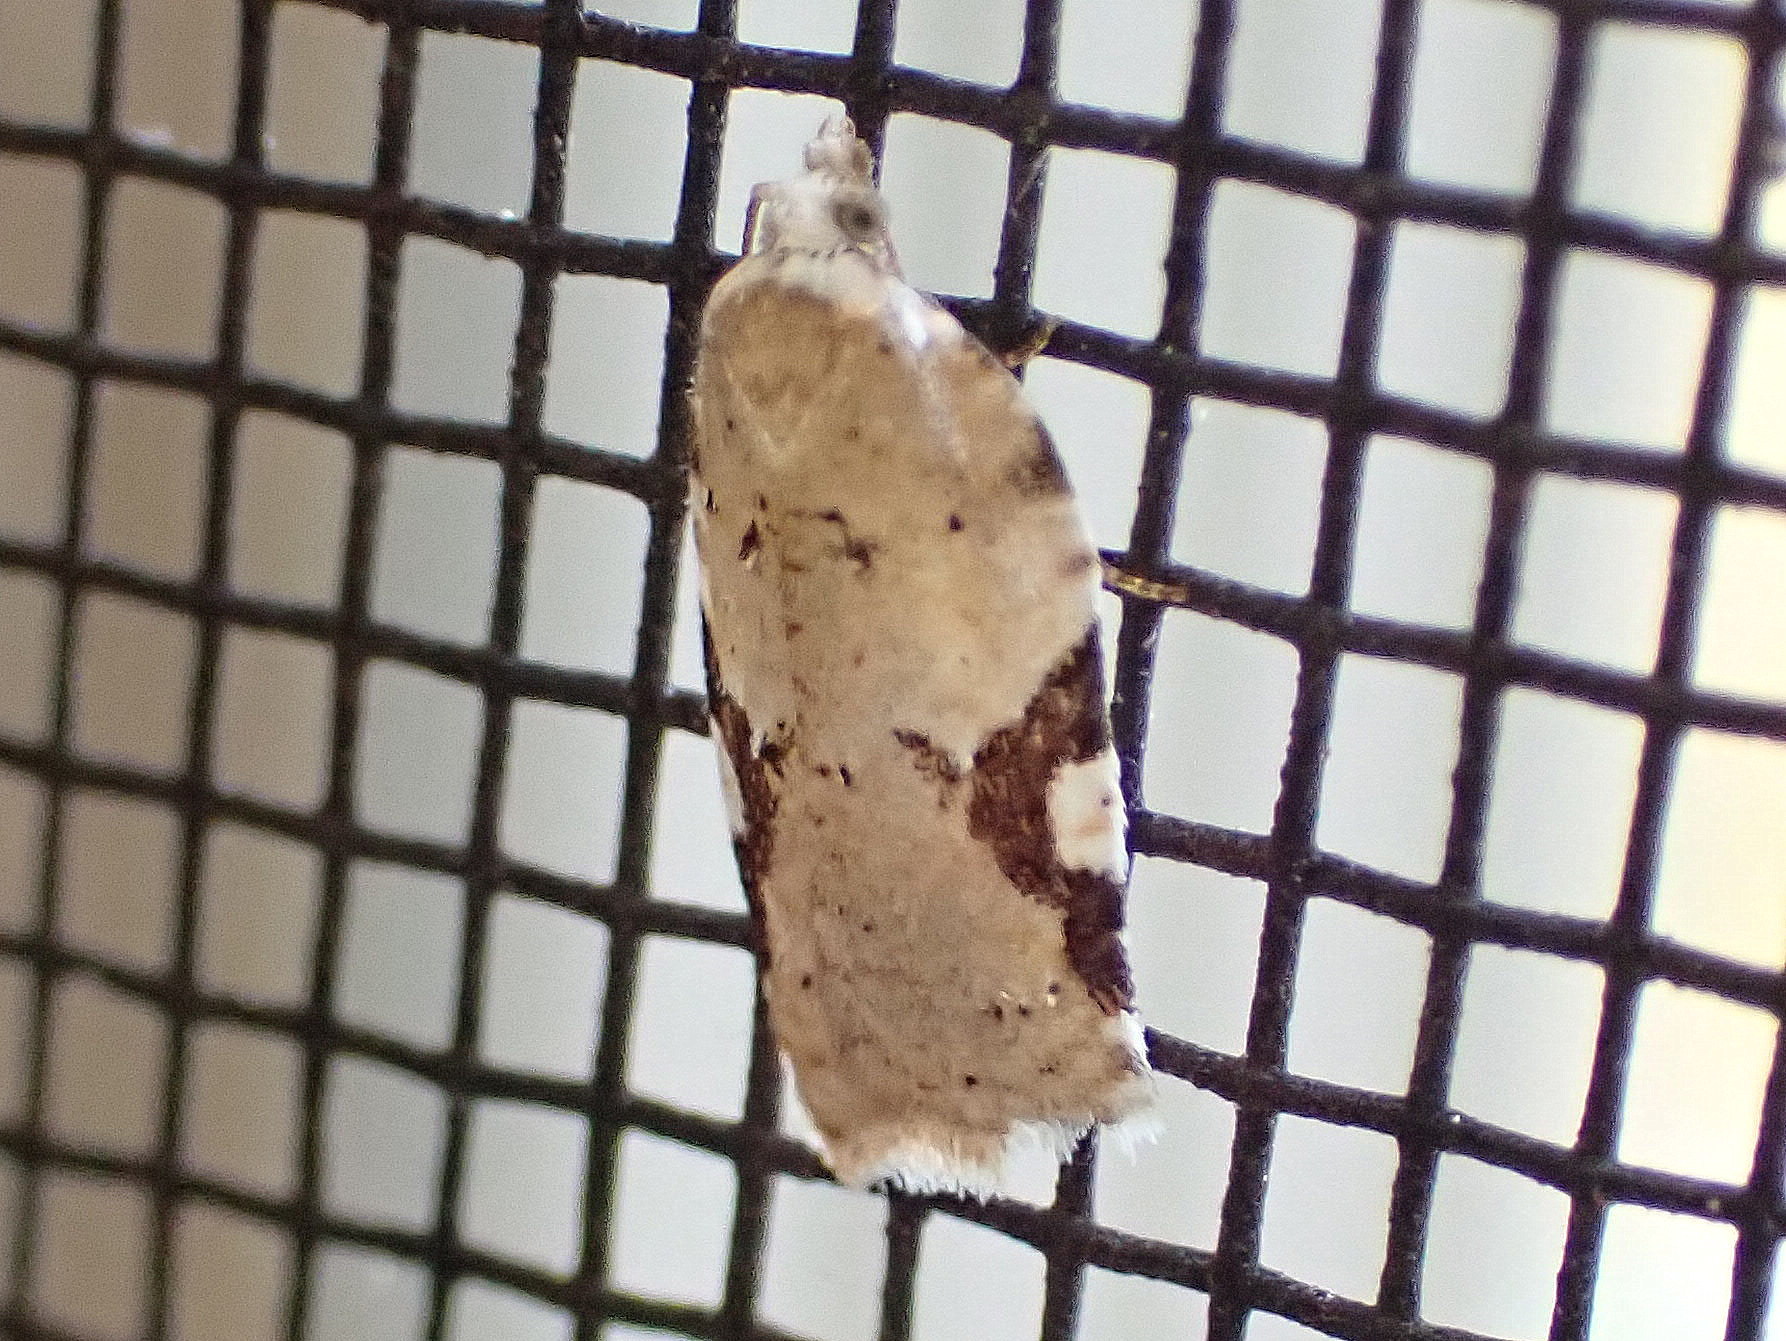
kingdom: Animalia
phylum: Arthropoda
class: Insecta
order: Lepidoptera
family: Tortricidae
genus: Acleris
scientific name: Acleris cervinana
